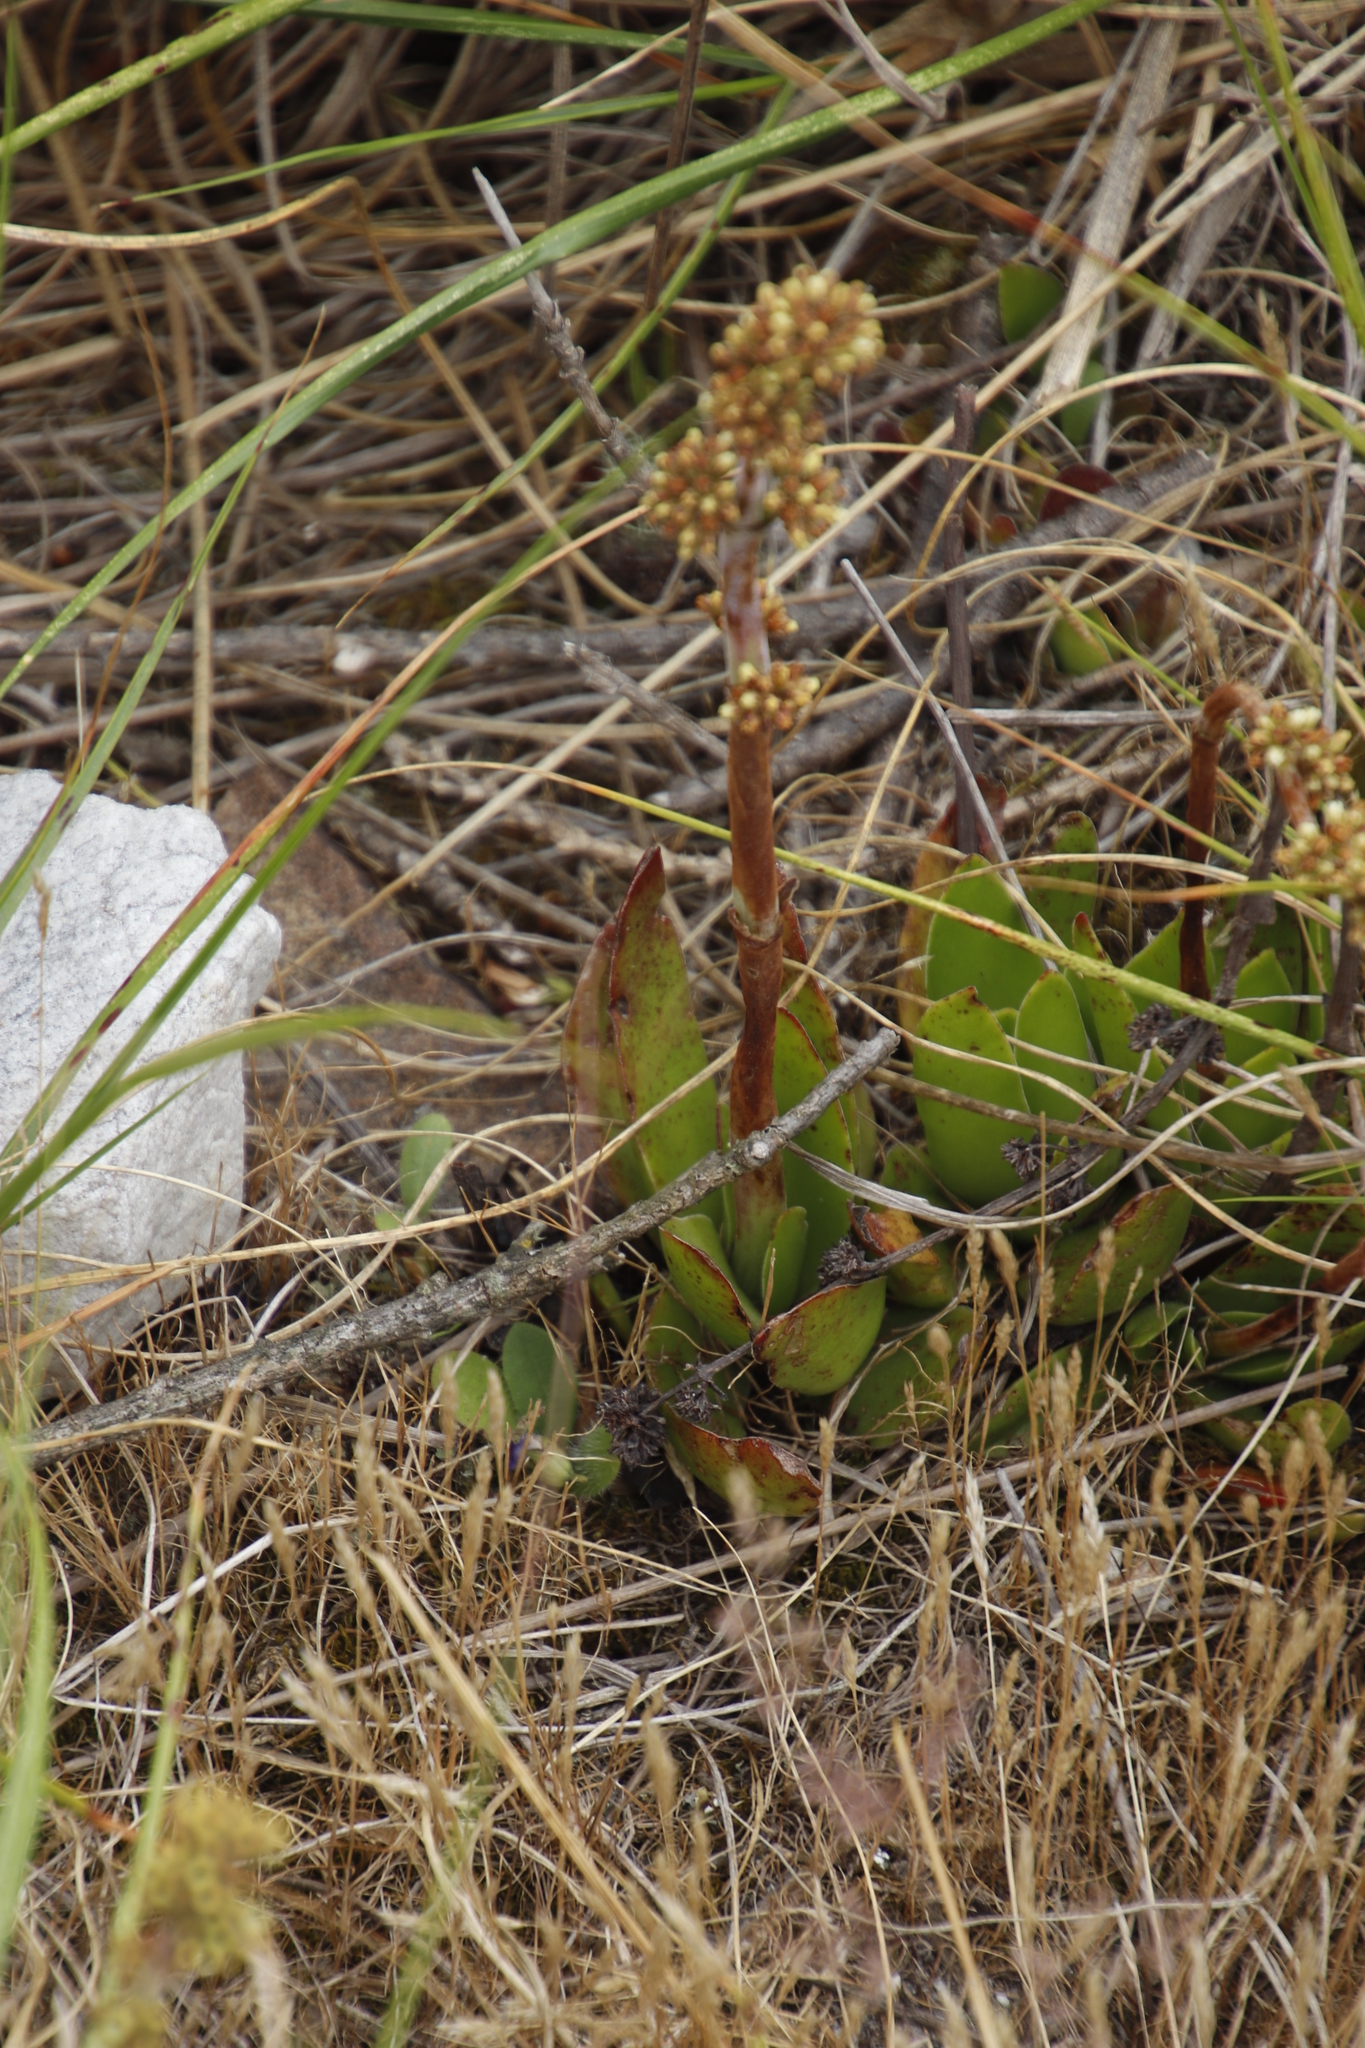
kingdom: Plantae
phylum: Tracheophyta
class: Magnoliopsida
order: Saxifragales
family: Crassulaceae
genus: Crassula
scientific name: Crassula nudicaulis
